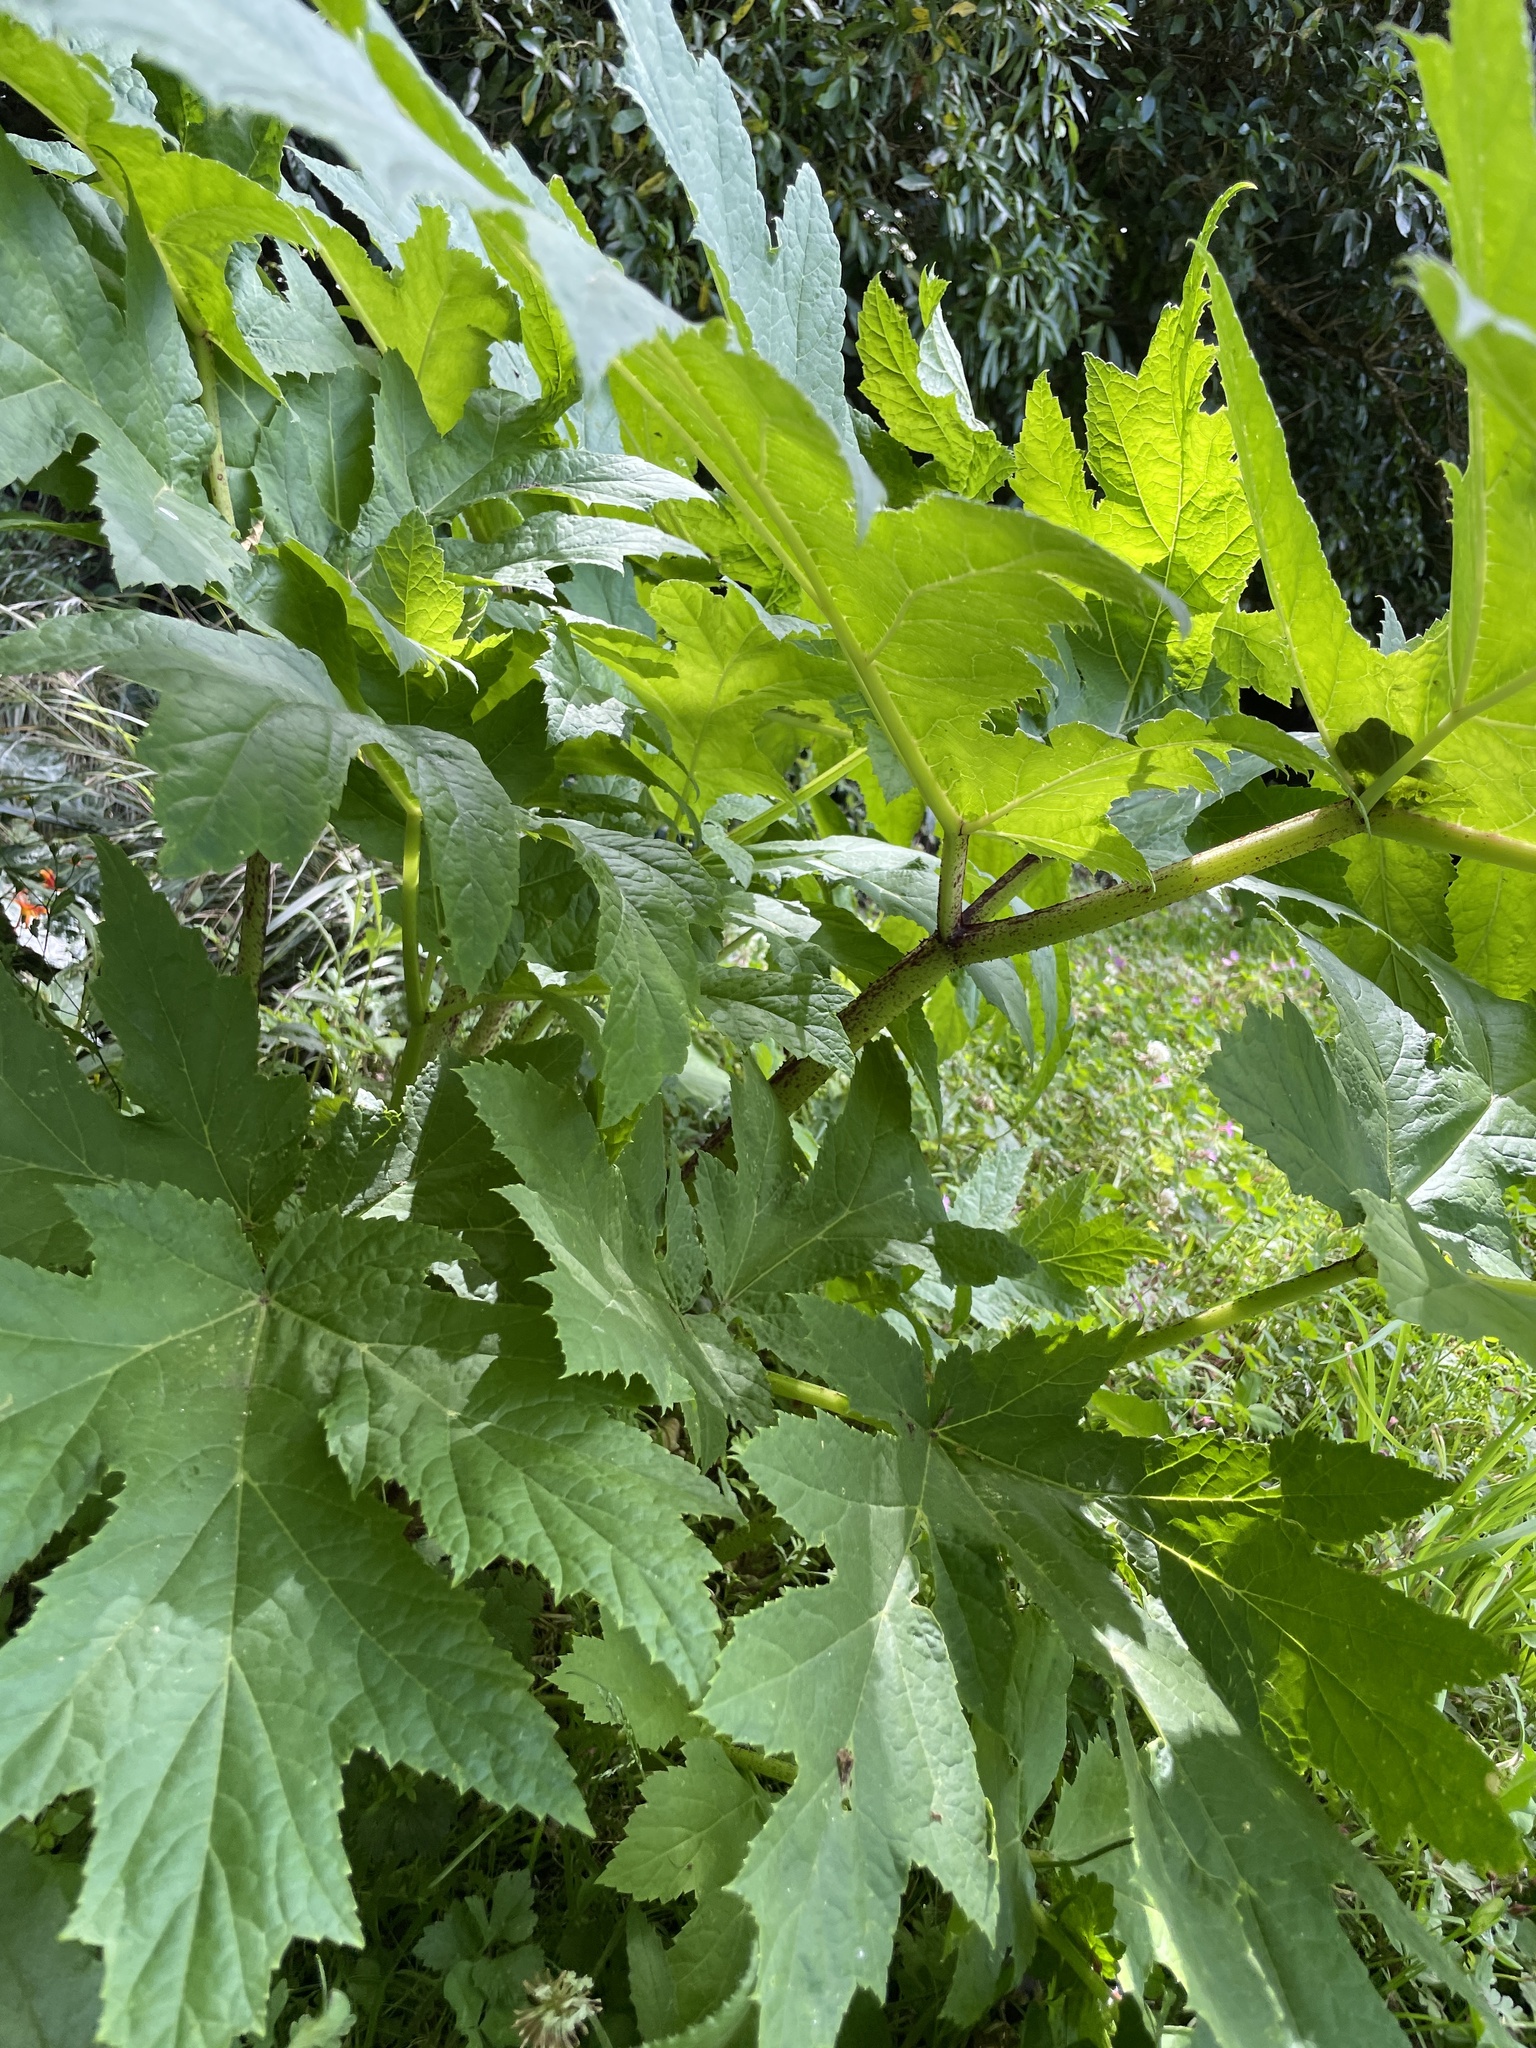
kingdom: Plantae
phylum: Tracheophyta
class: Magnoliopsida
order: Gunnerales
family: Gunneraceae
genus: Gunnera
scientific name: Gunnera tinctoria
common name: Giant-rhubarb
